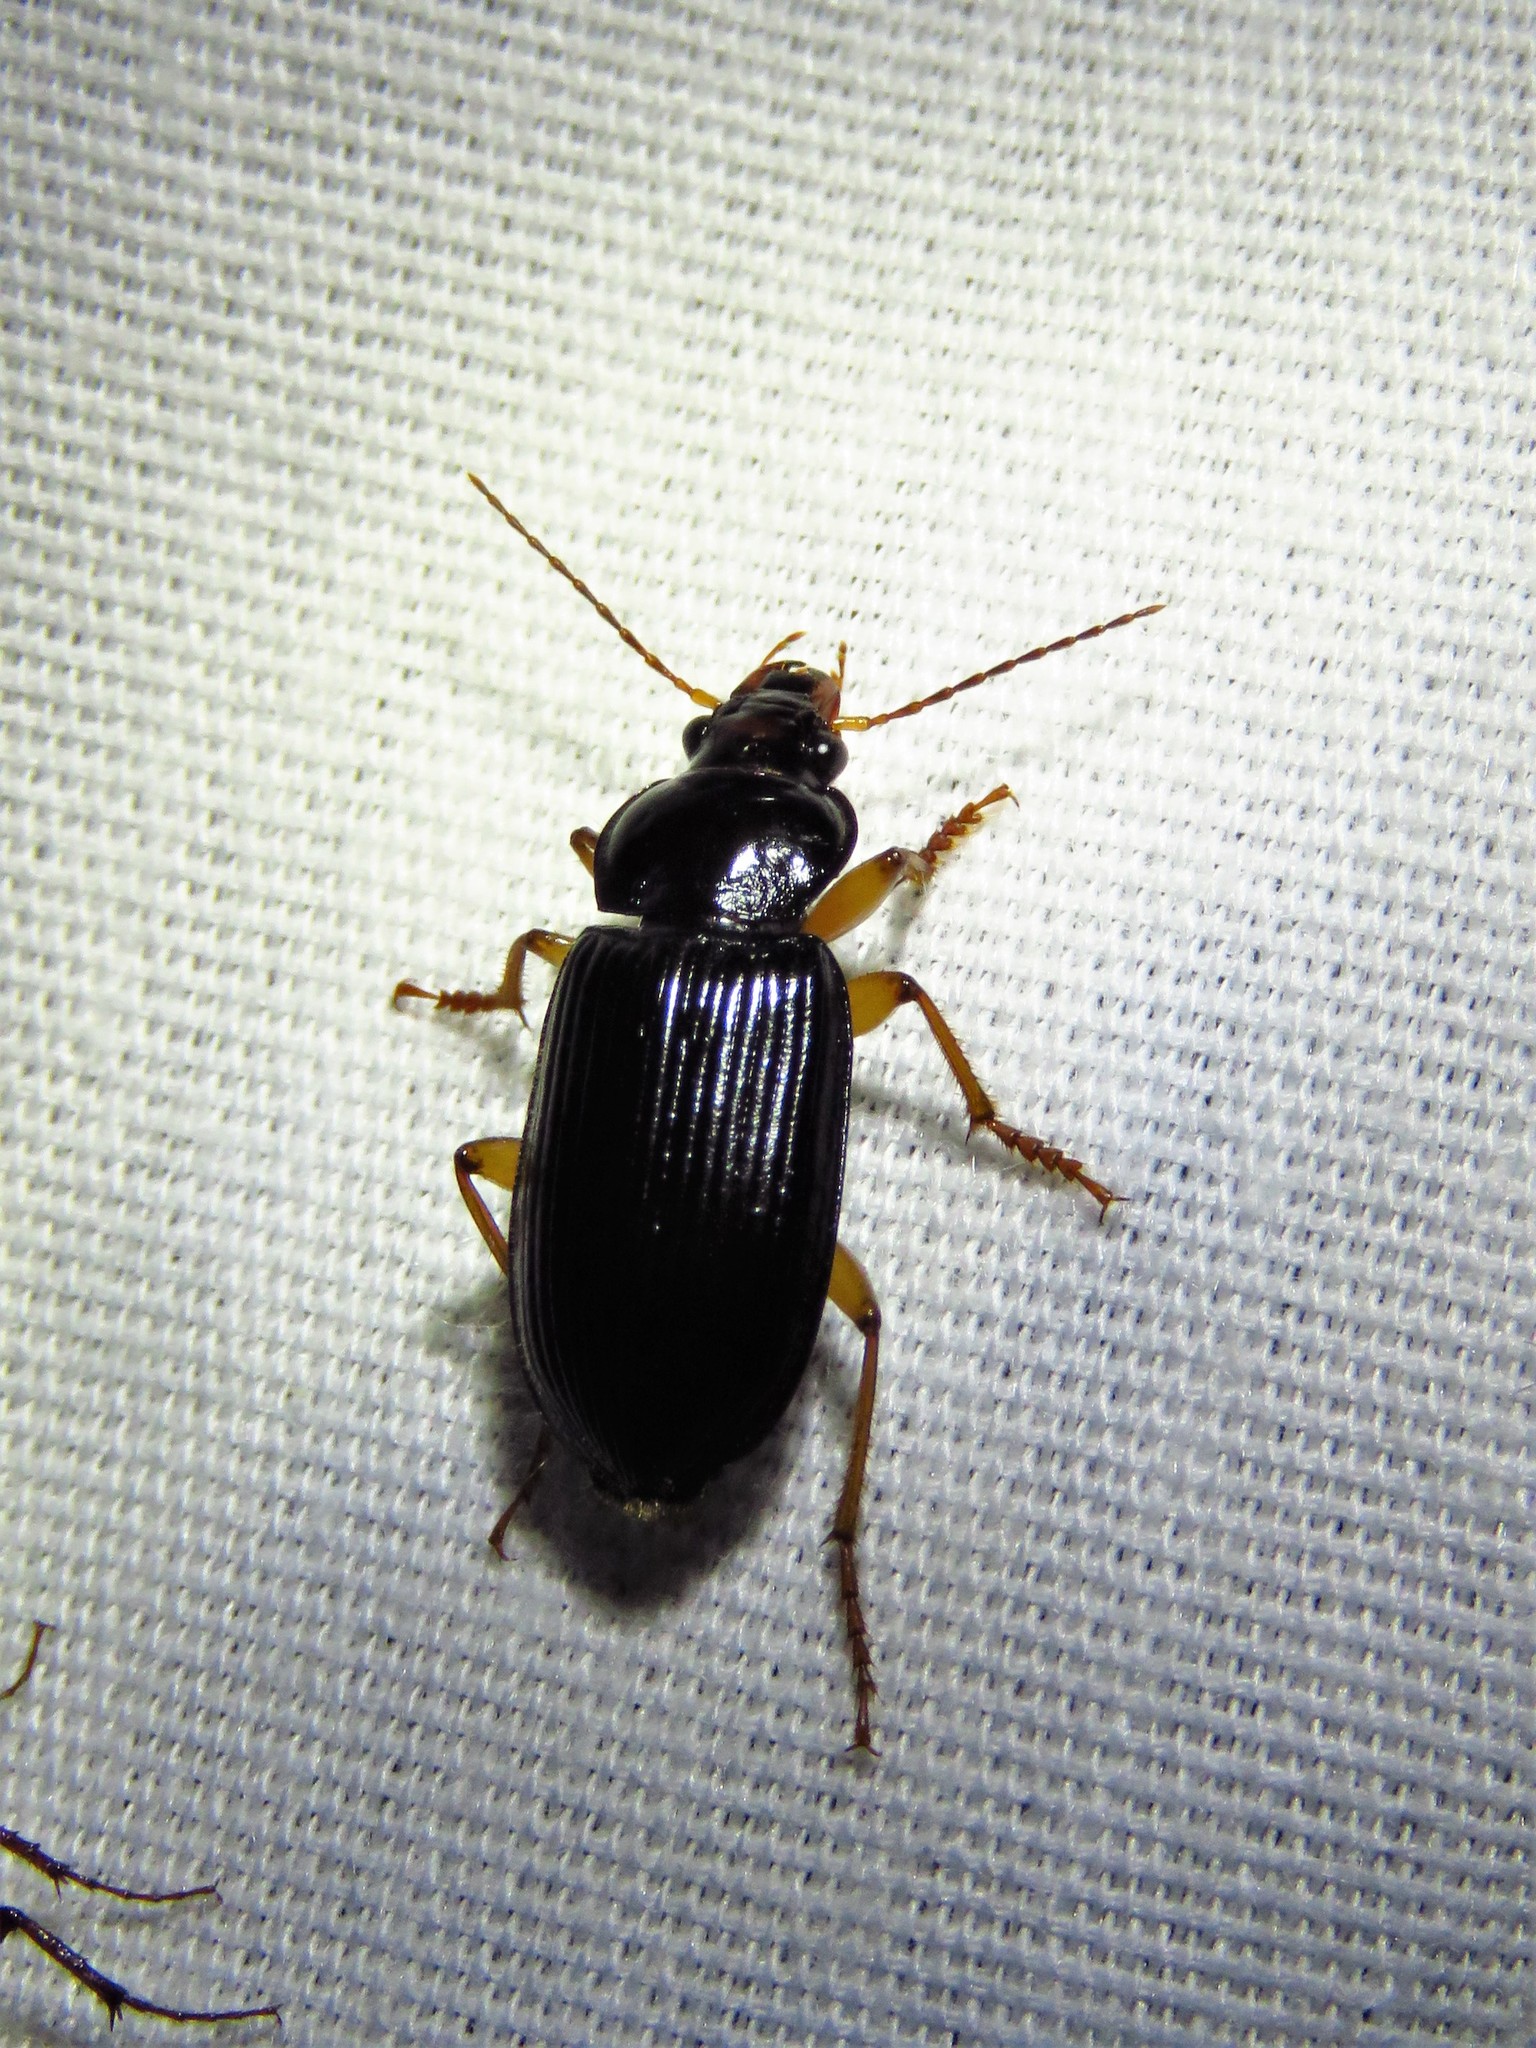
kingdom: Animalia
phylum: Arthropoda
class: Insecta
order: Coleoptera
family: Carabidae
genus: Anisodactylus
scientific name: Anisodactylus verticalis
